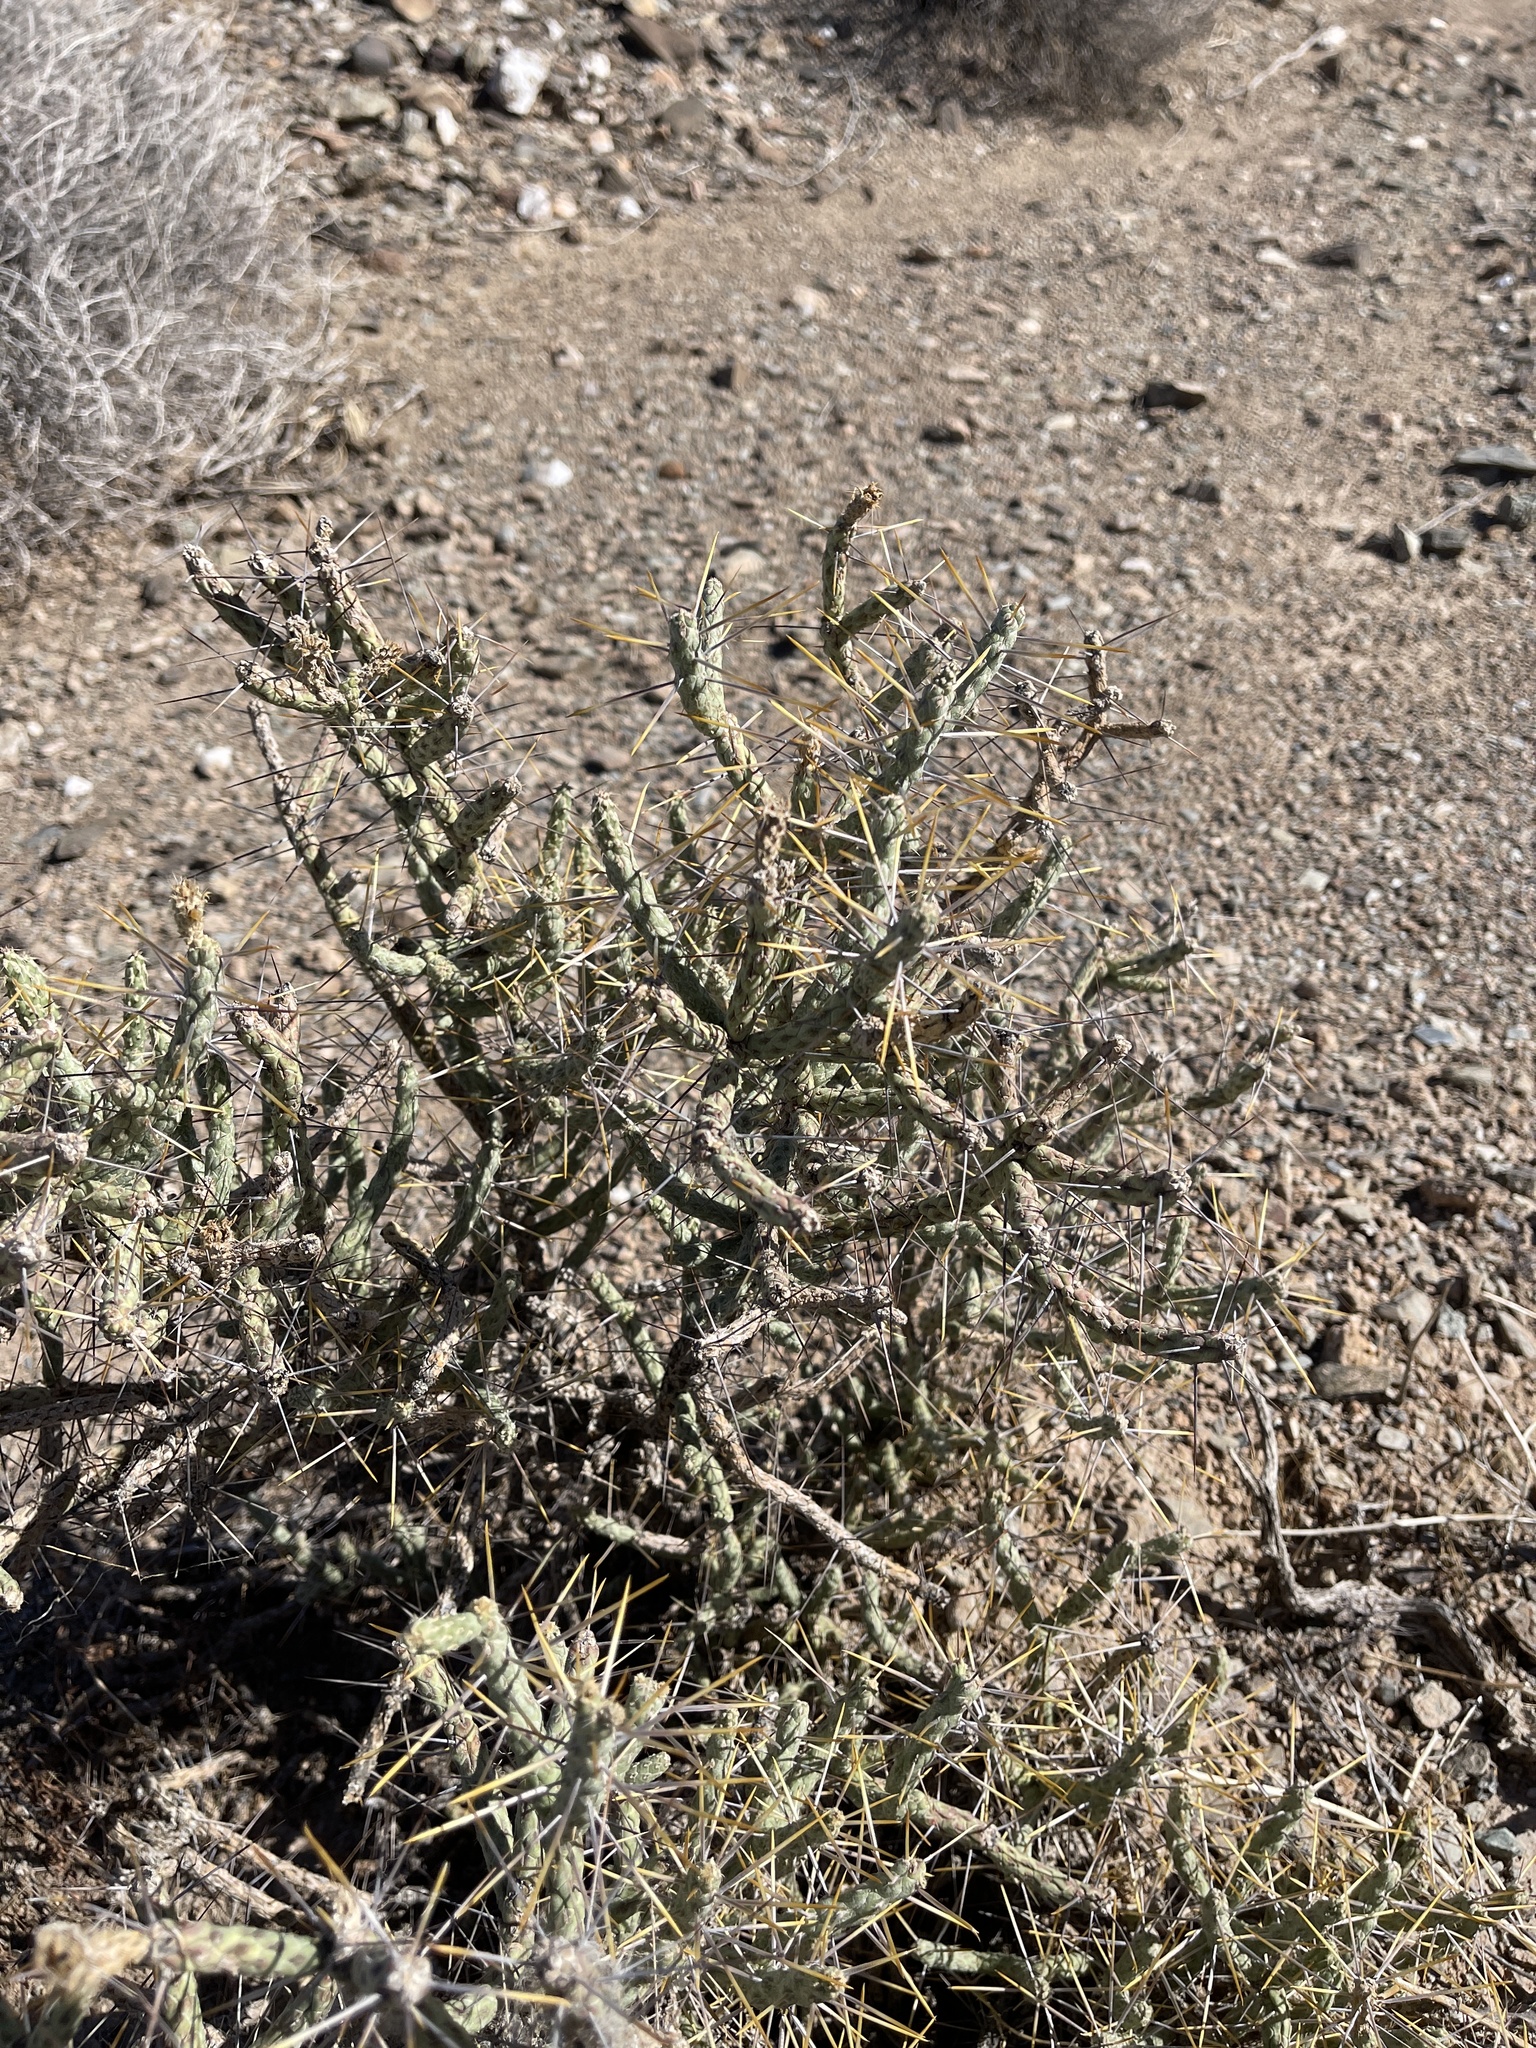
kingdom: Plantae
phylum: Tracheophyta
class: Magnoliopsida
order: Caryophyllales
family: Cactaceae
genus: Cylindropuntia
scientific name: Cylindropuntia ramosissima
